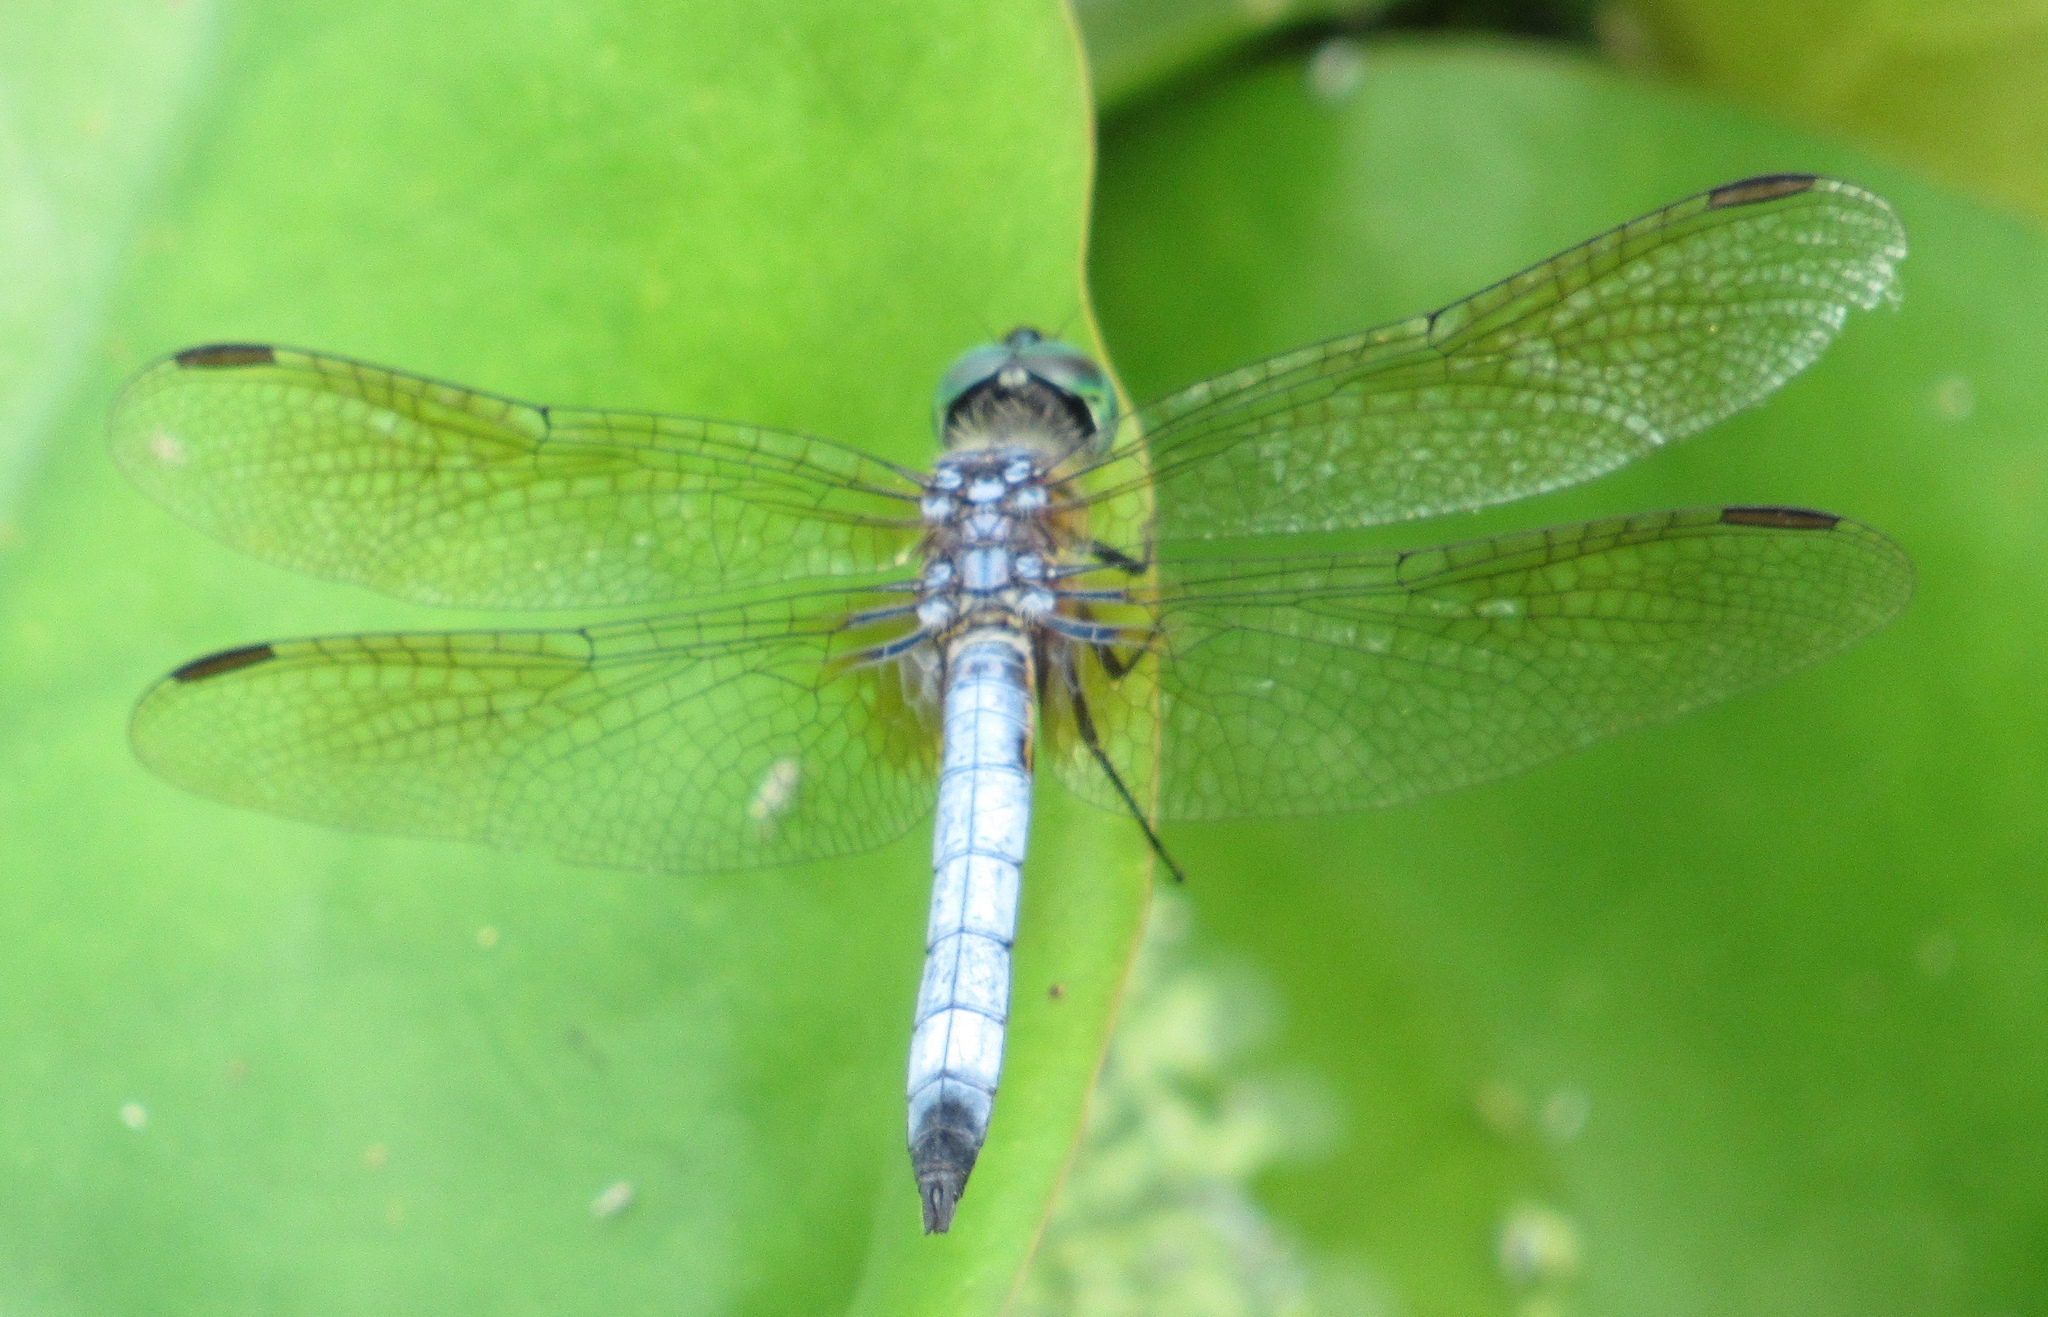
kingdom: Animalia
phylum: Arthropoda
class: Insecta
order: Odonata
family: Libellulidae
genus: Pachydiplax
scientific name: Pachydiplax longipennis
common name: Blue dasher
